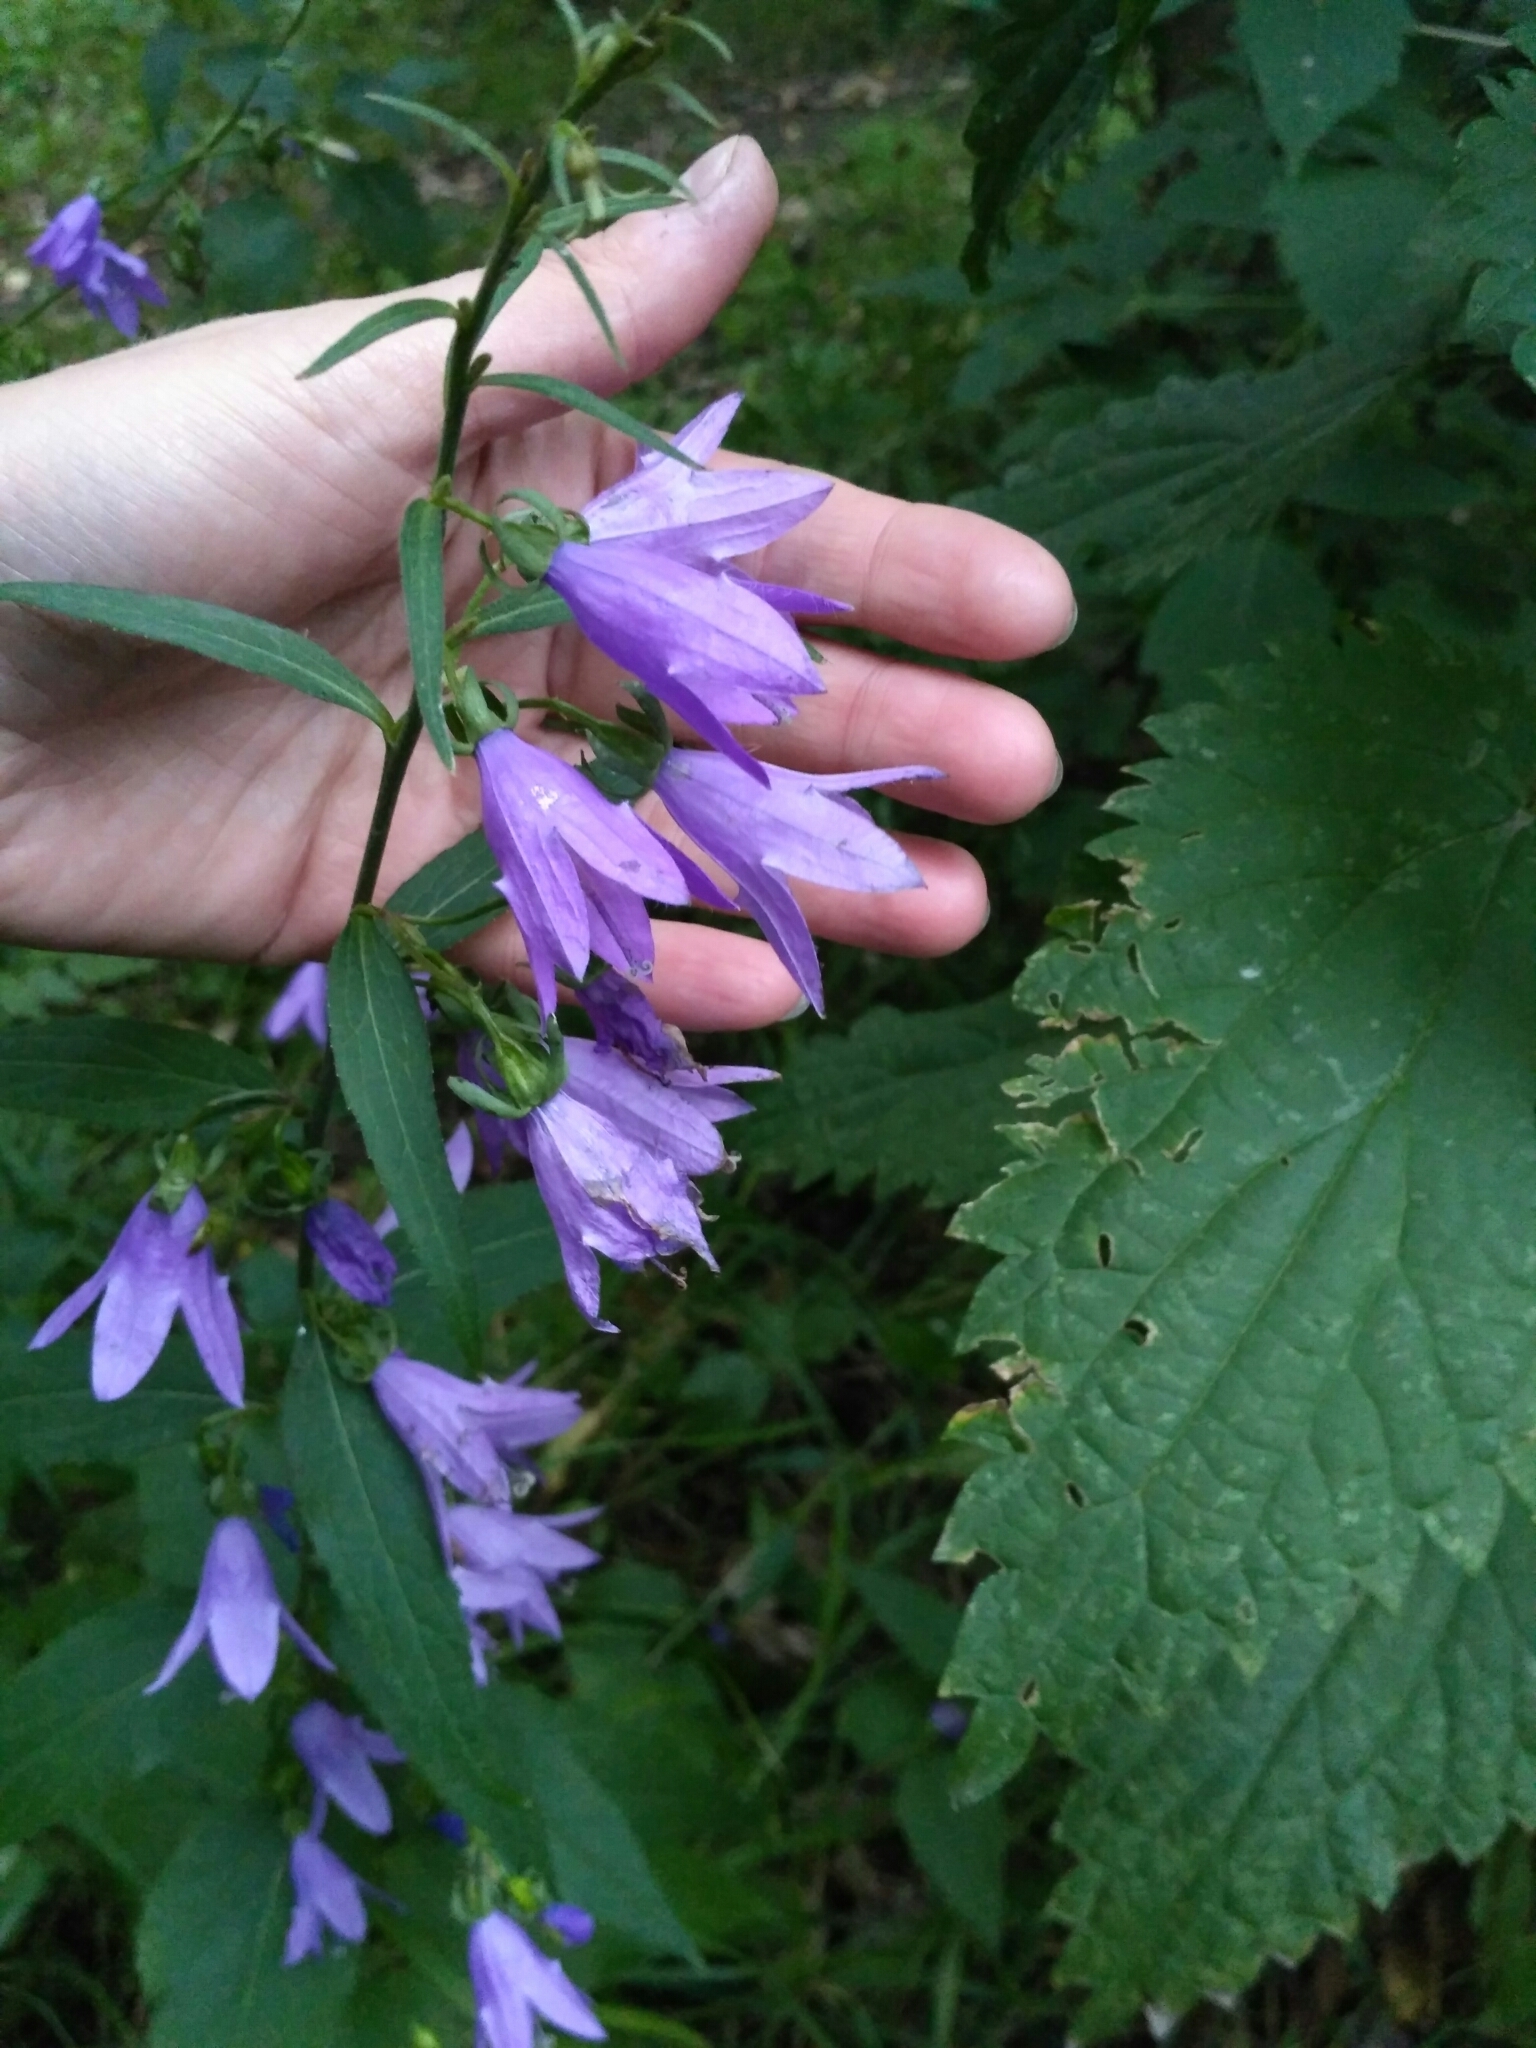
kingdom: Plantae
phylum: Tracheophyta
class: Magnoliopsida
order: Asterales
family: Campanulaceae
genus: Campanula
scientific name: Campanula rapunculoides
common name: Creeping bellflower
